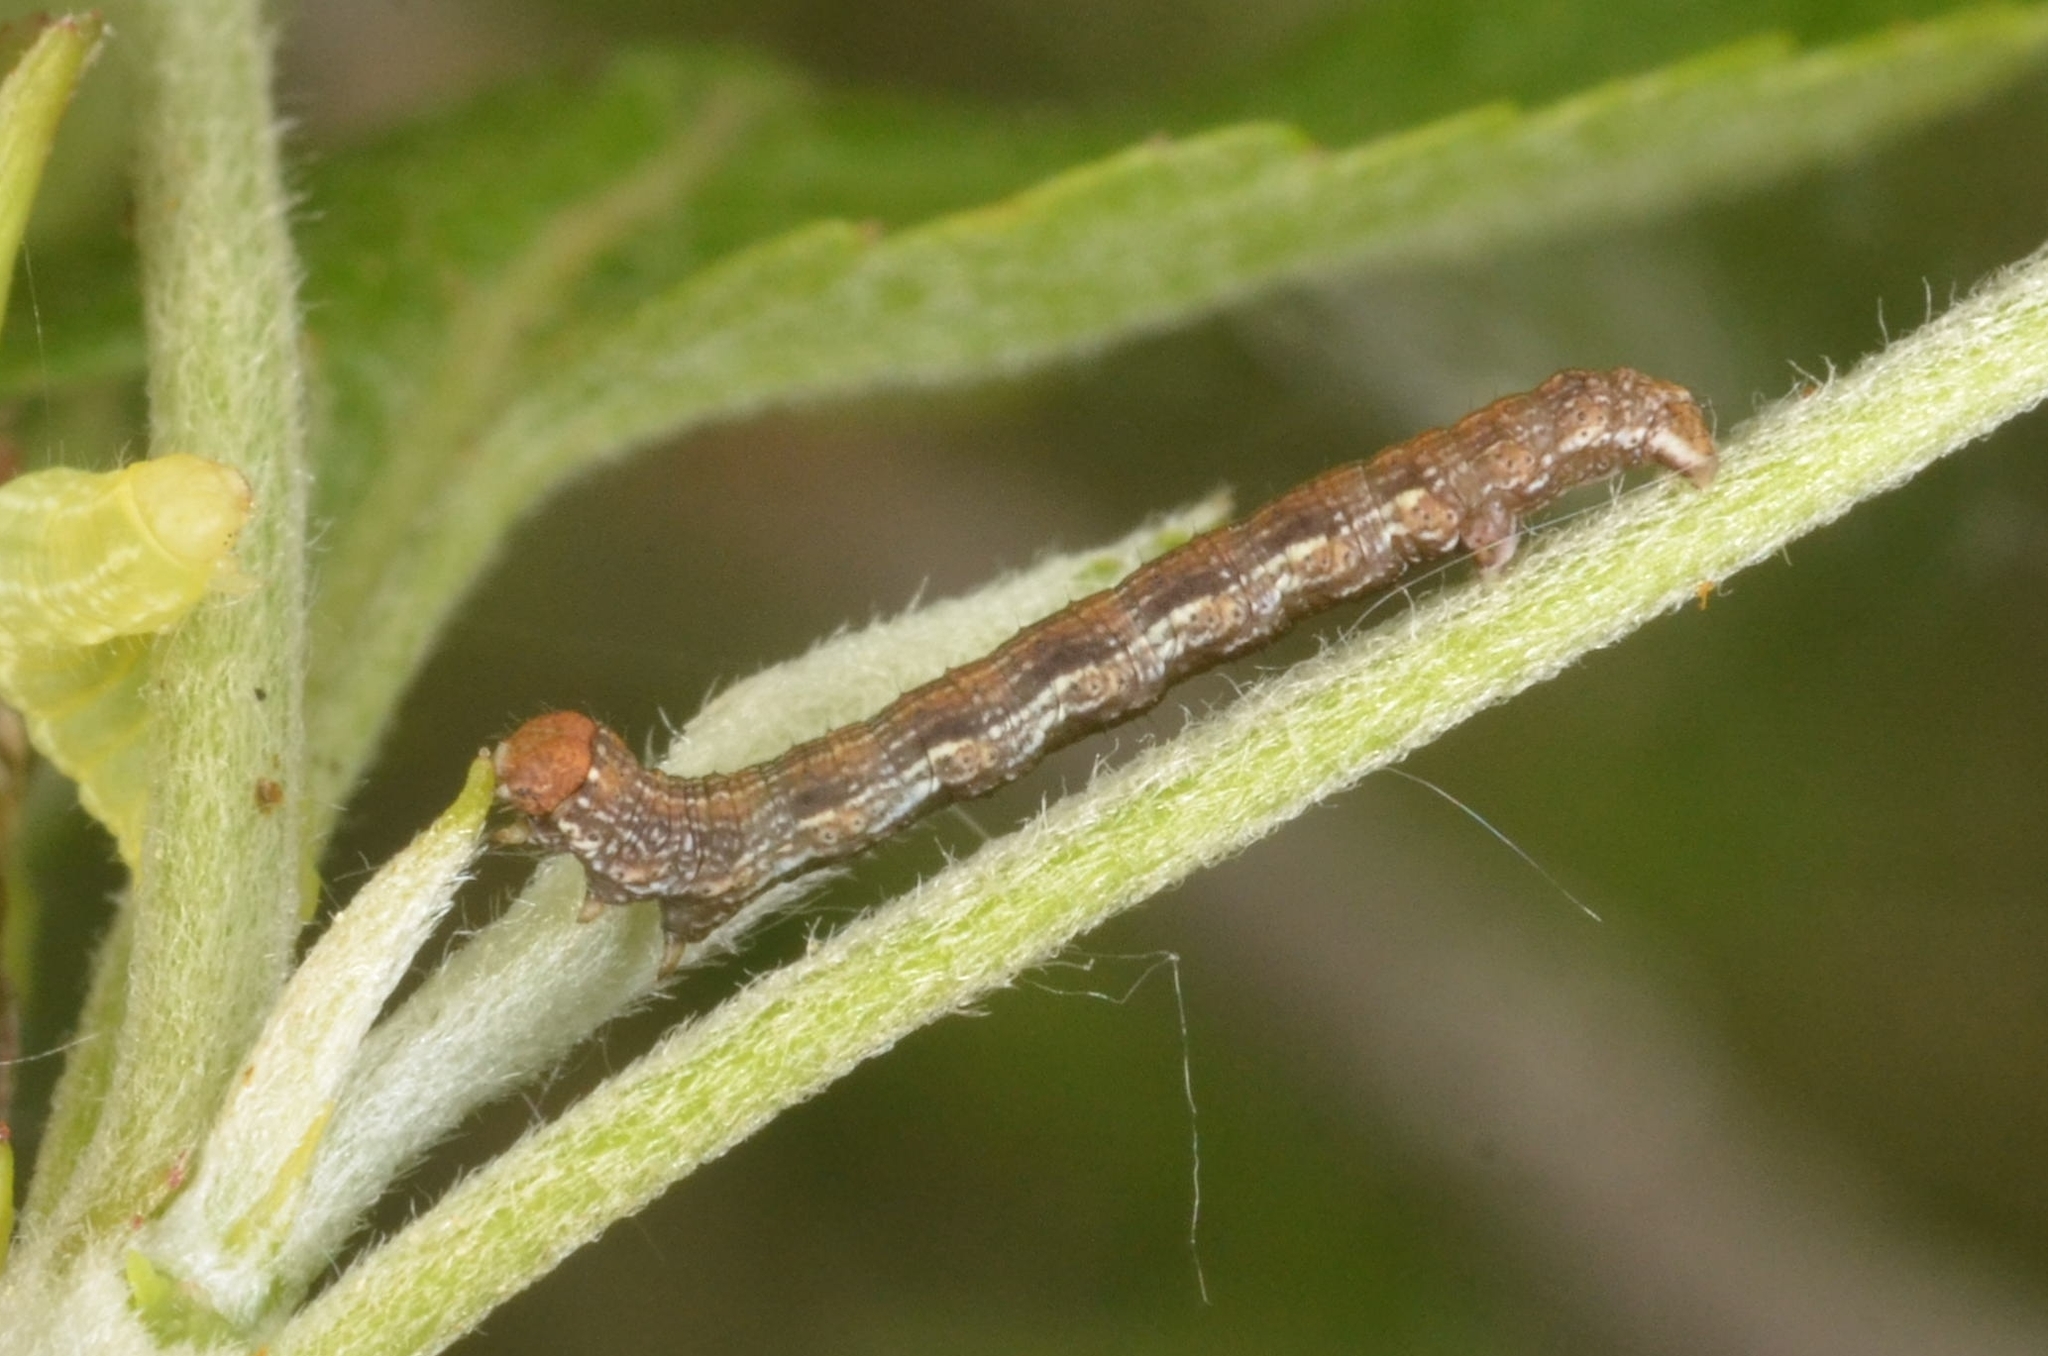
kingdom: Animalia
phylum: Arthropoda
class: Insecta
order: Lepidoptera
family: Geometridae
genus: Erannis
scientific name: Erannis defoliaria
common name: Mottled umber
